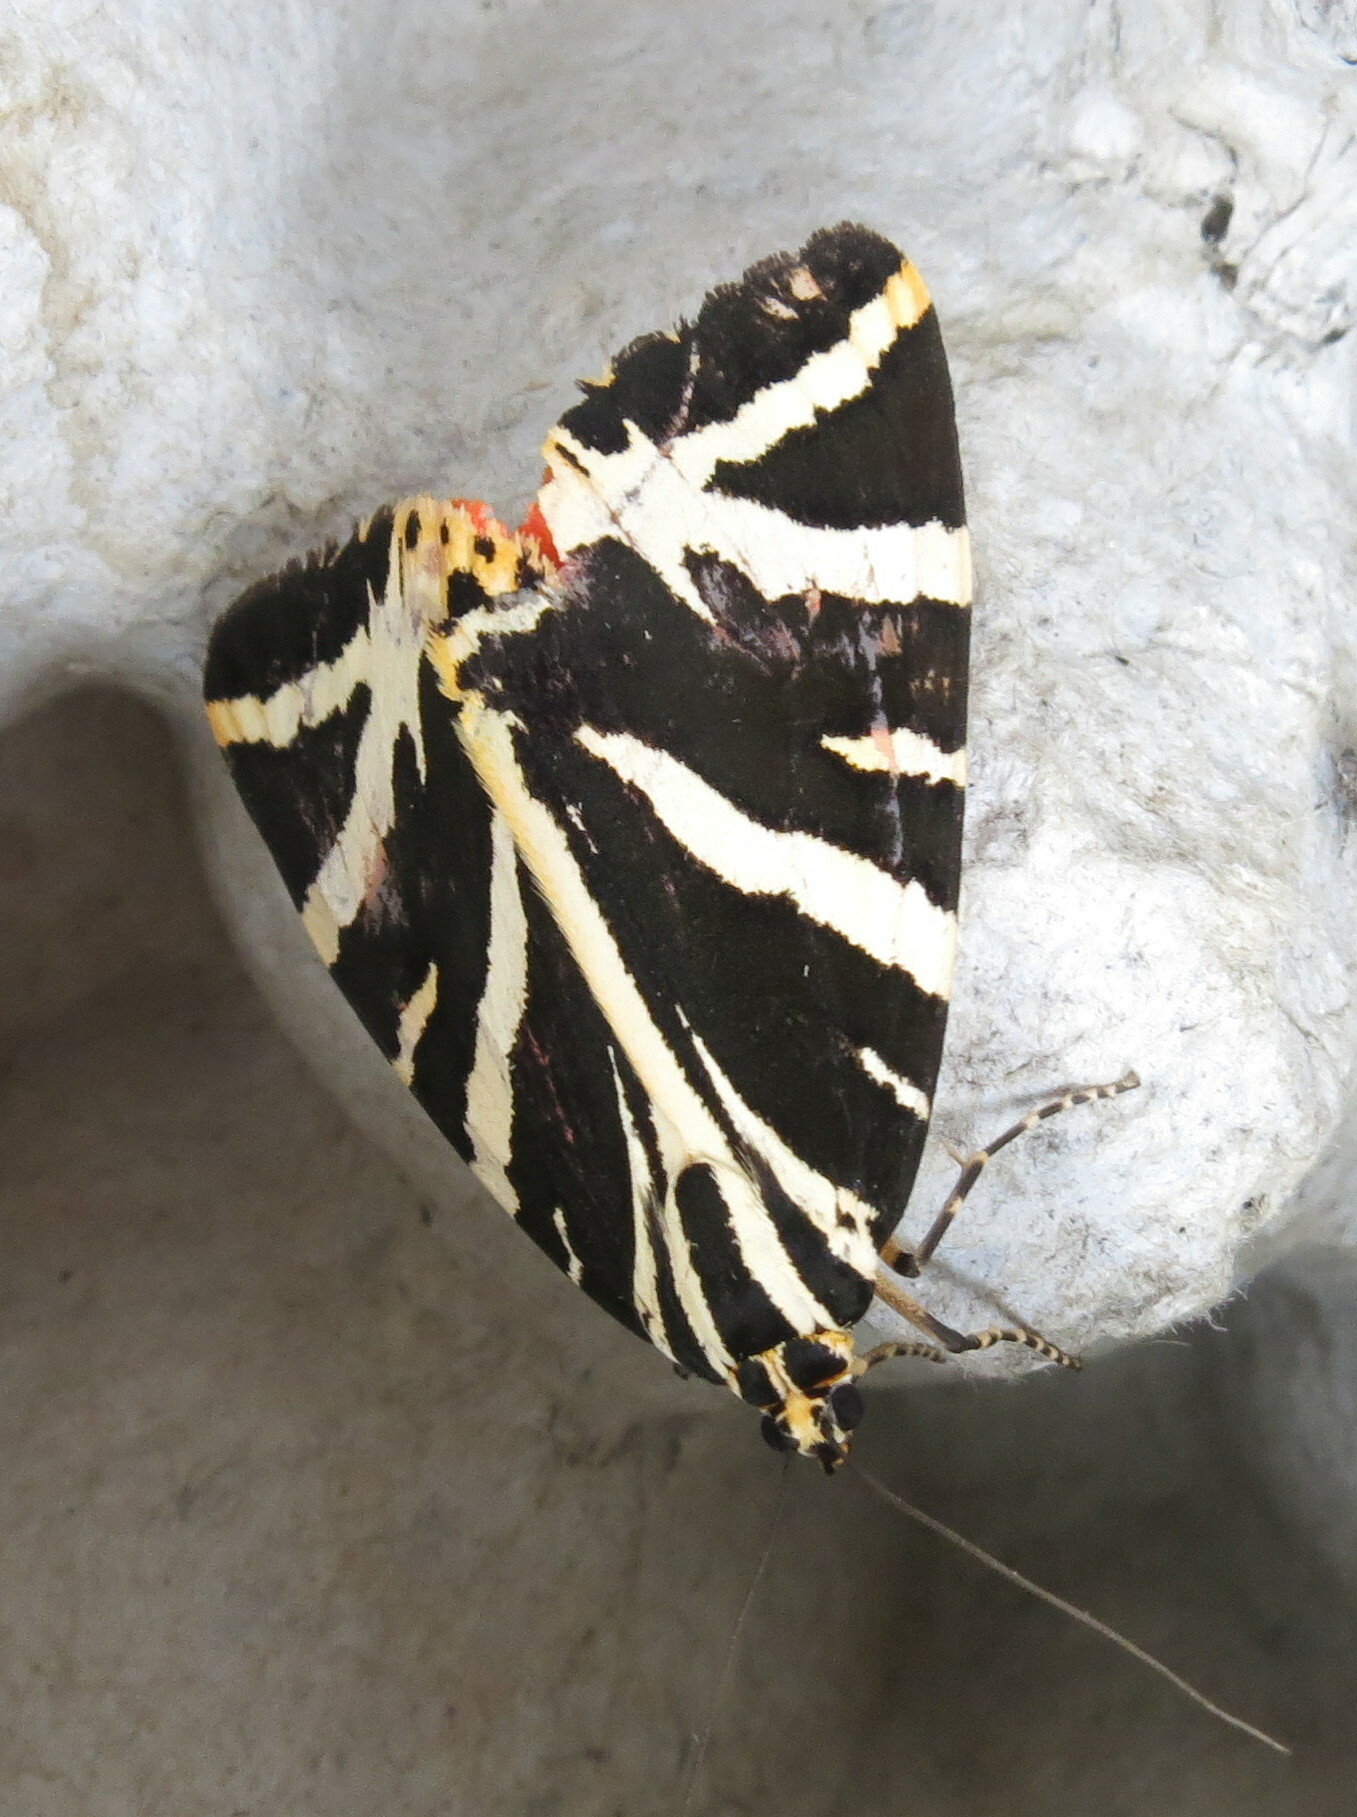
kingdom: Animalia
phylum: Arthropoda
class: Insecta
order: Lepidoptera
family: Erebidae
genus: Euplagia
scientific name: Euplagia quadripunctaria
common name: Jersey tiger
